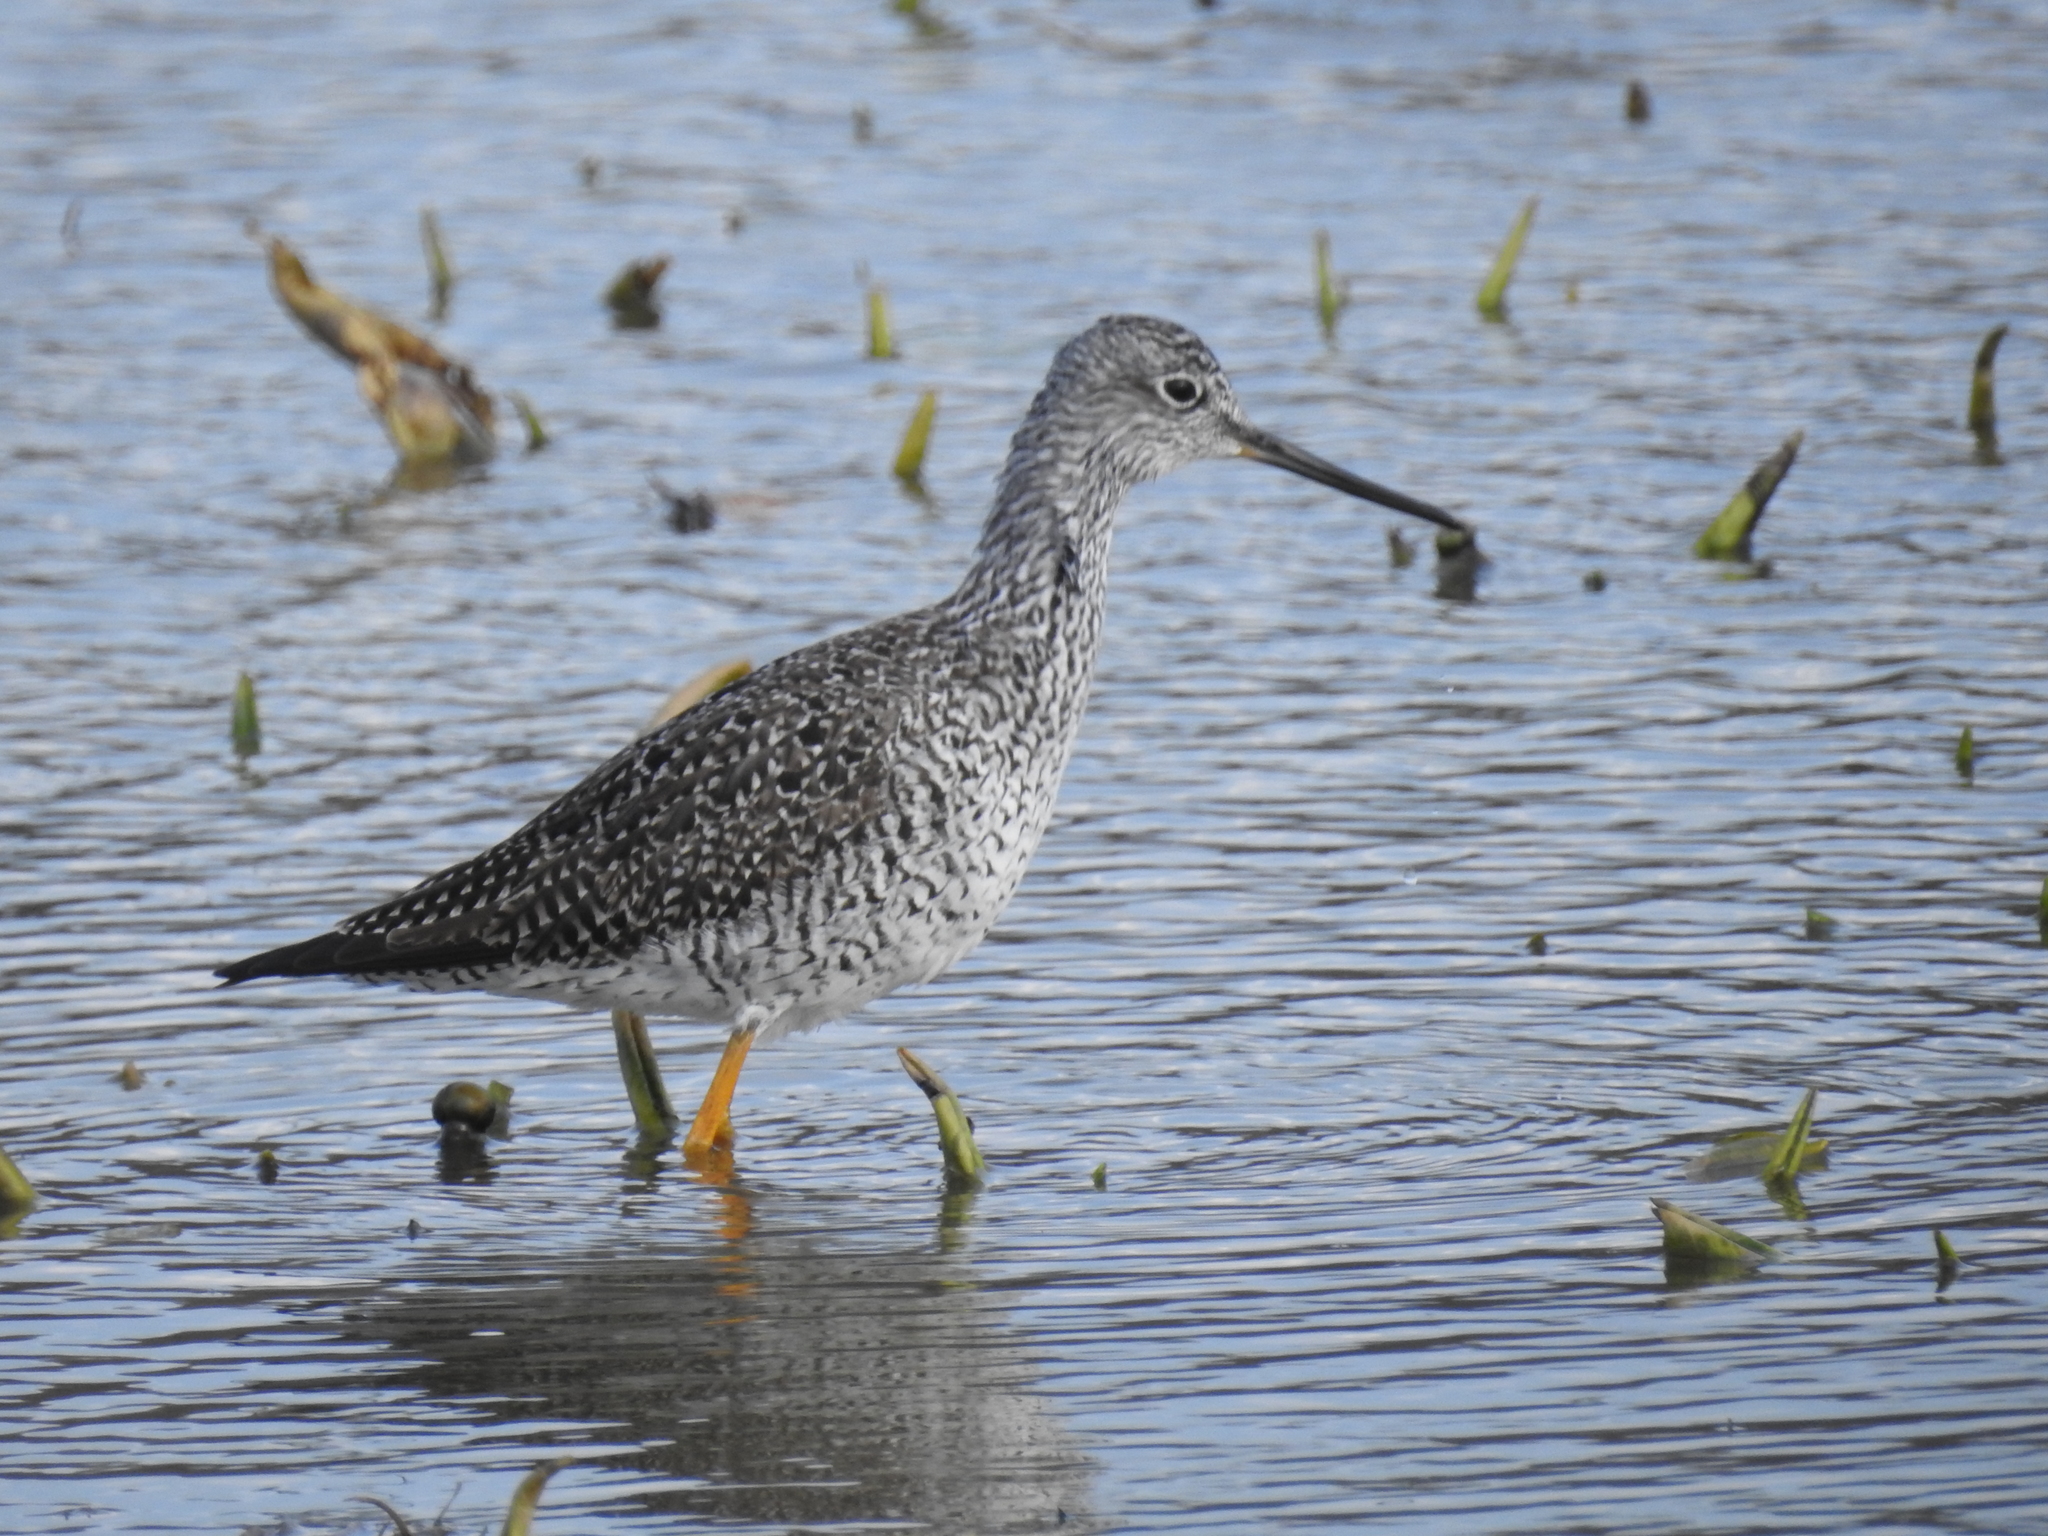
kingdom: Animalia
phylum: Chordata
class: Aves
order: Charadriiformes
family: Scolopacidae
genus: Tringa
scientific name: Tringa melanoleuca
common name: Greater yellowlegs
